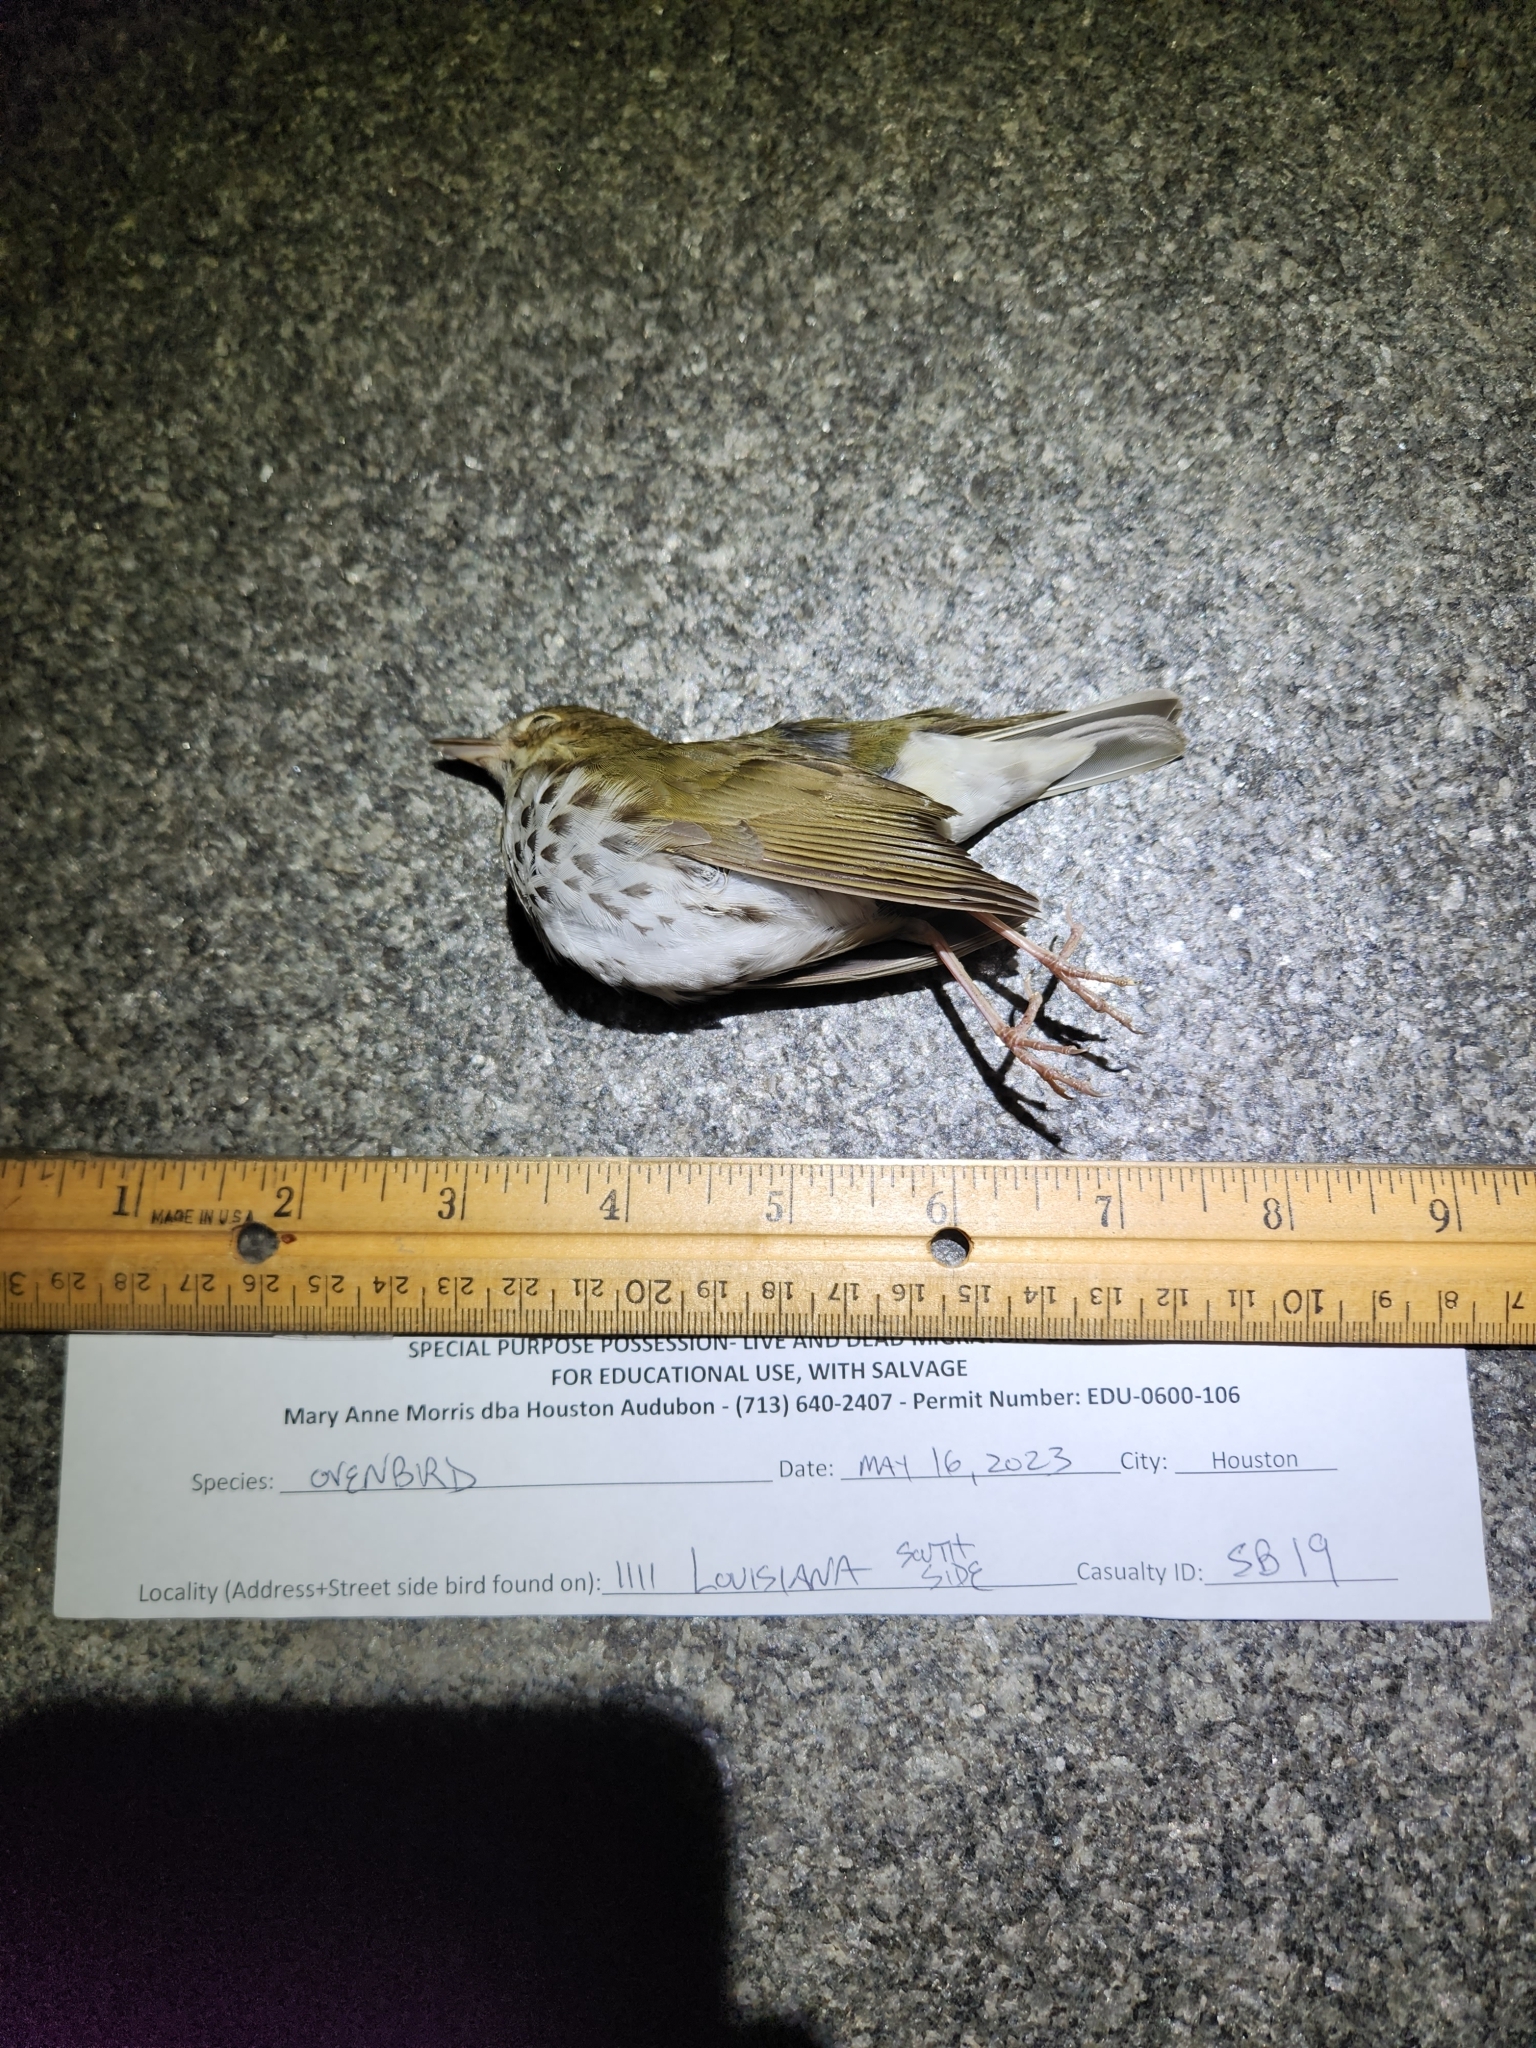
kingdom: Animalia
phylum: Chordata
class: Aves
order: Passeriformes
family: Parulidae
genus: Seiurus
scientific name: Seiurus aurocapilla
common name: Ovenbird
